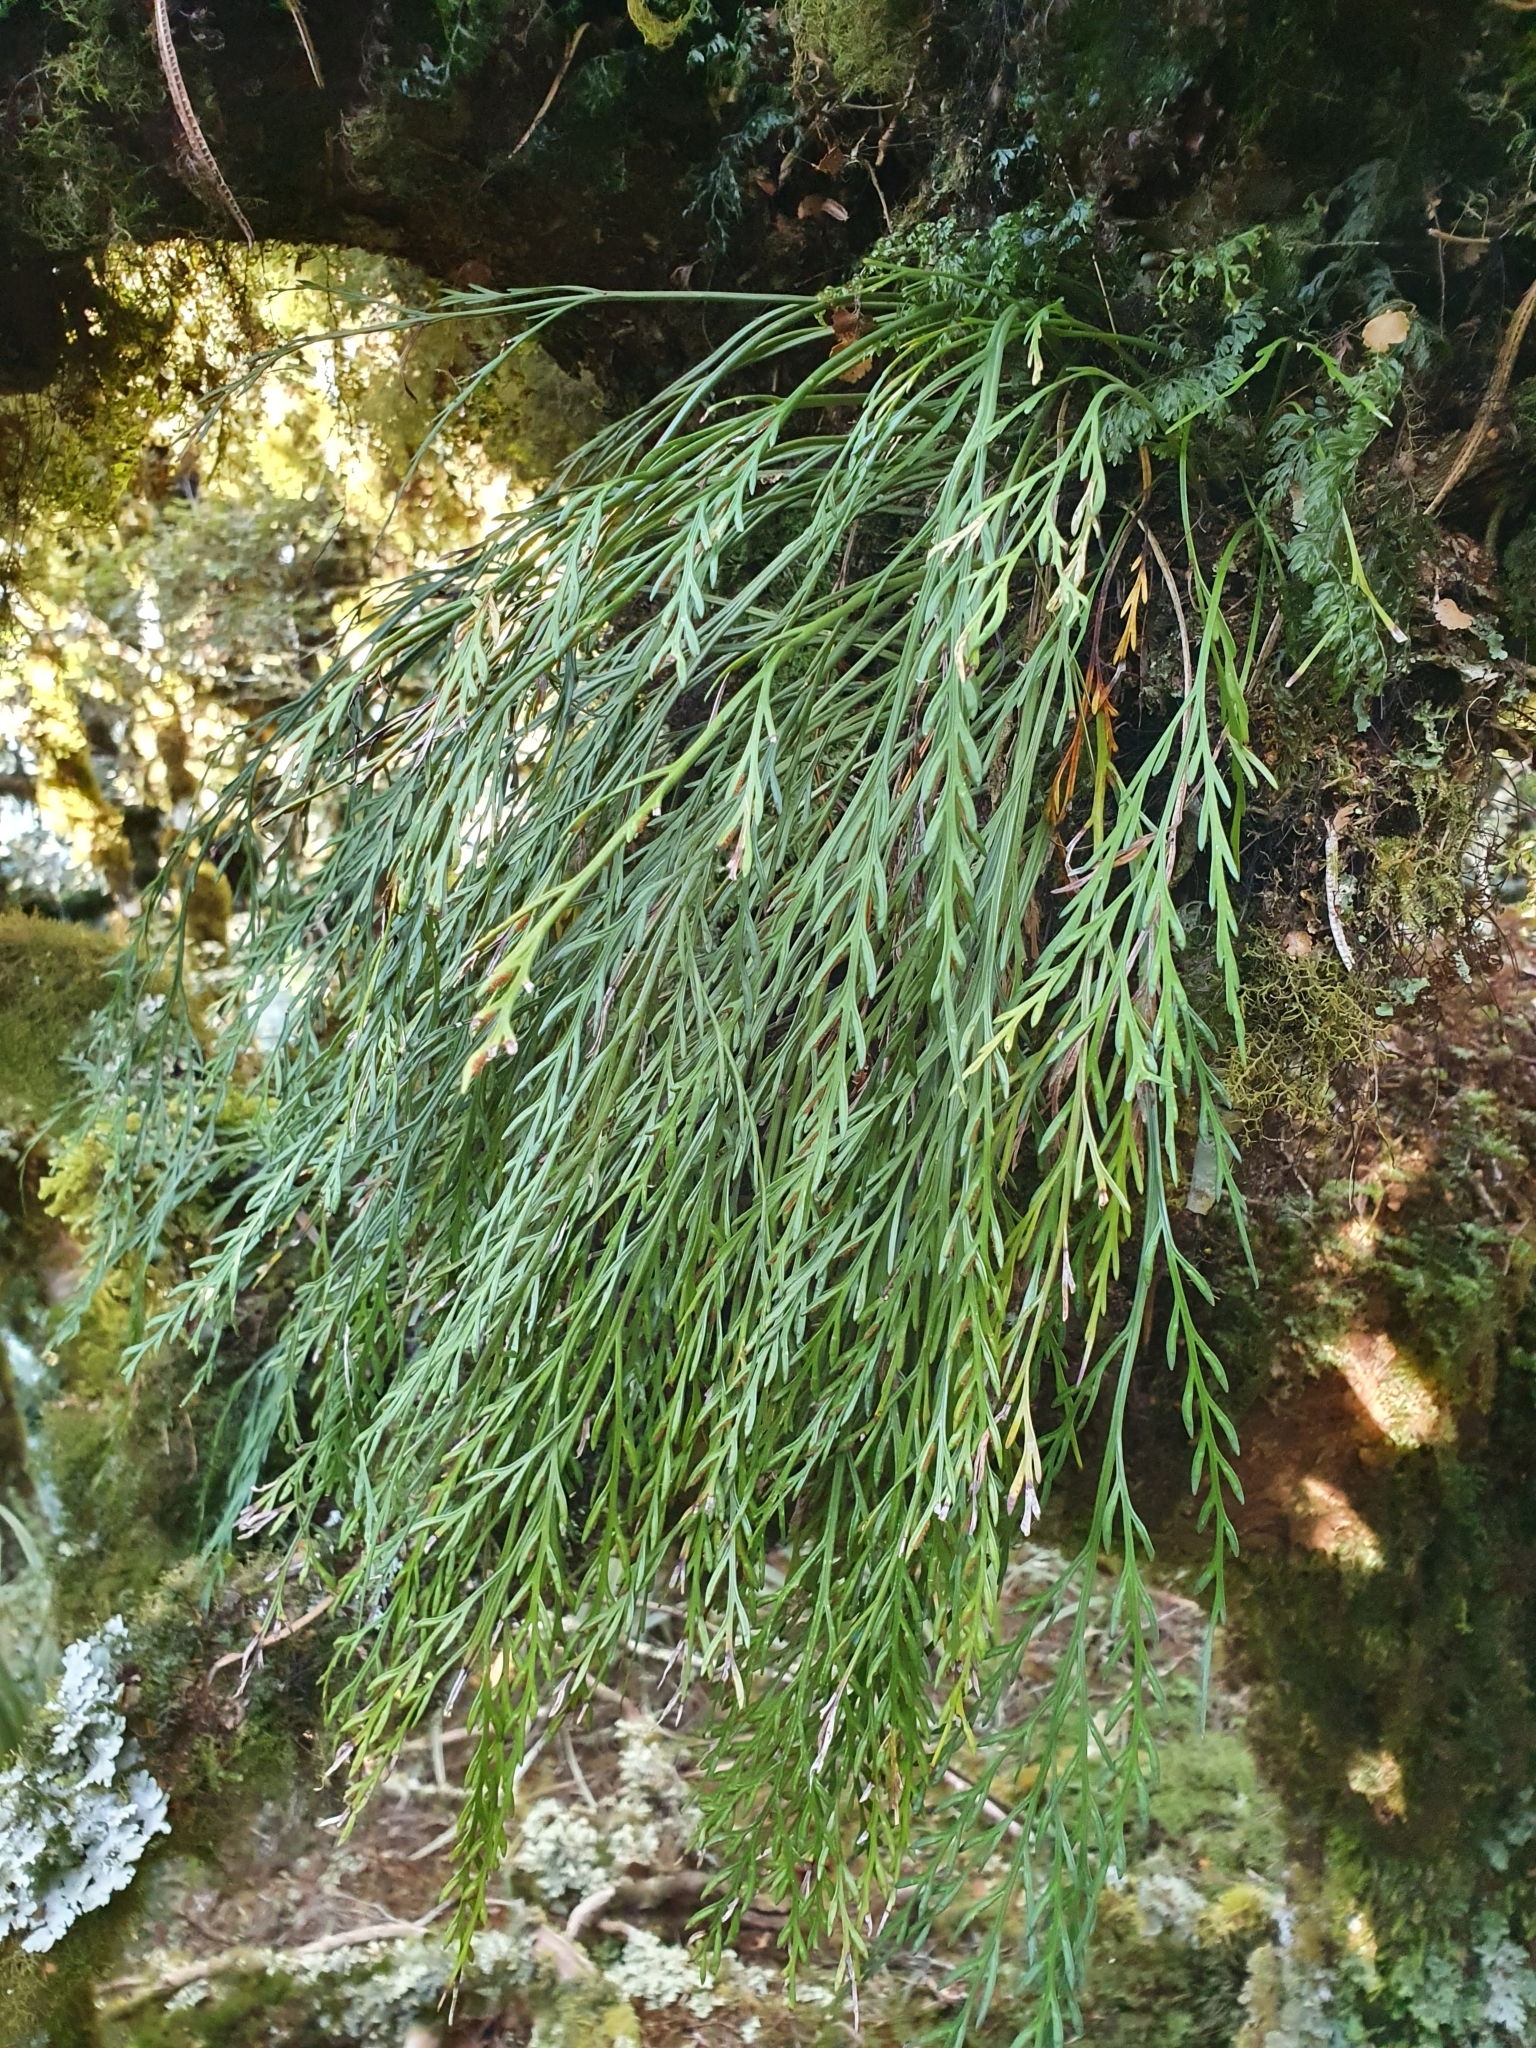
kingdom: Plantae
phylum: Tracheophyta
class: Polypodiopsida
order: Polypodiales
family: Aspleniaceae
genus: Asplenium
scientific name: Asplenium flaccidum
